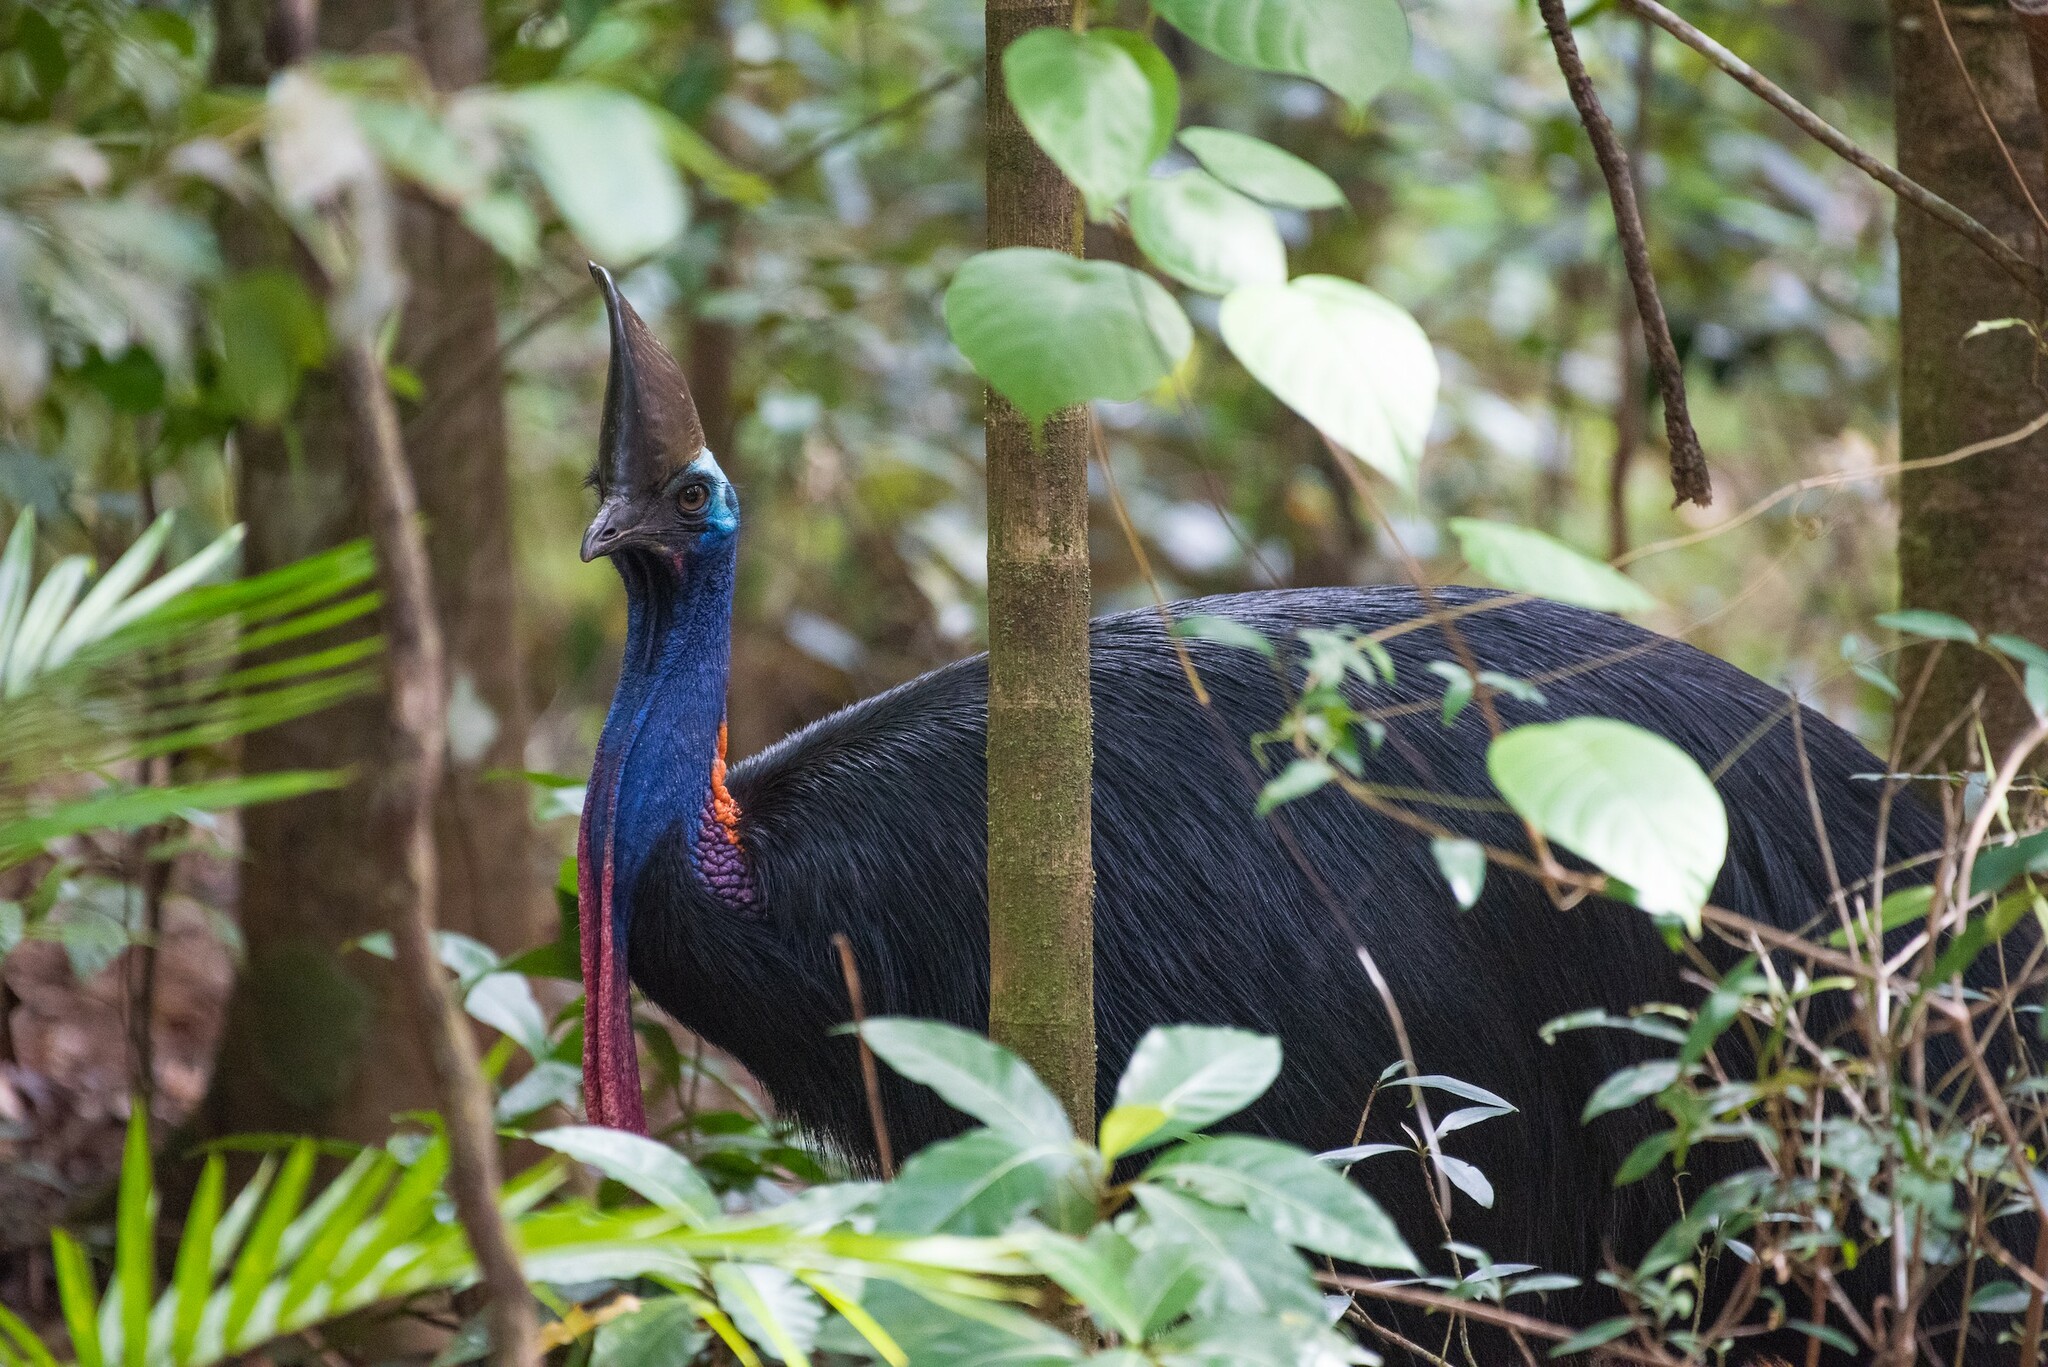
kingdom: Animalia
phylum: Chordata
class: Aves
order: Casuariiformes
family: Casuariidae
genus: Casuarius
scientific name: Casuarius casuarius
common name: Southern cassowary
